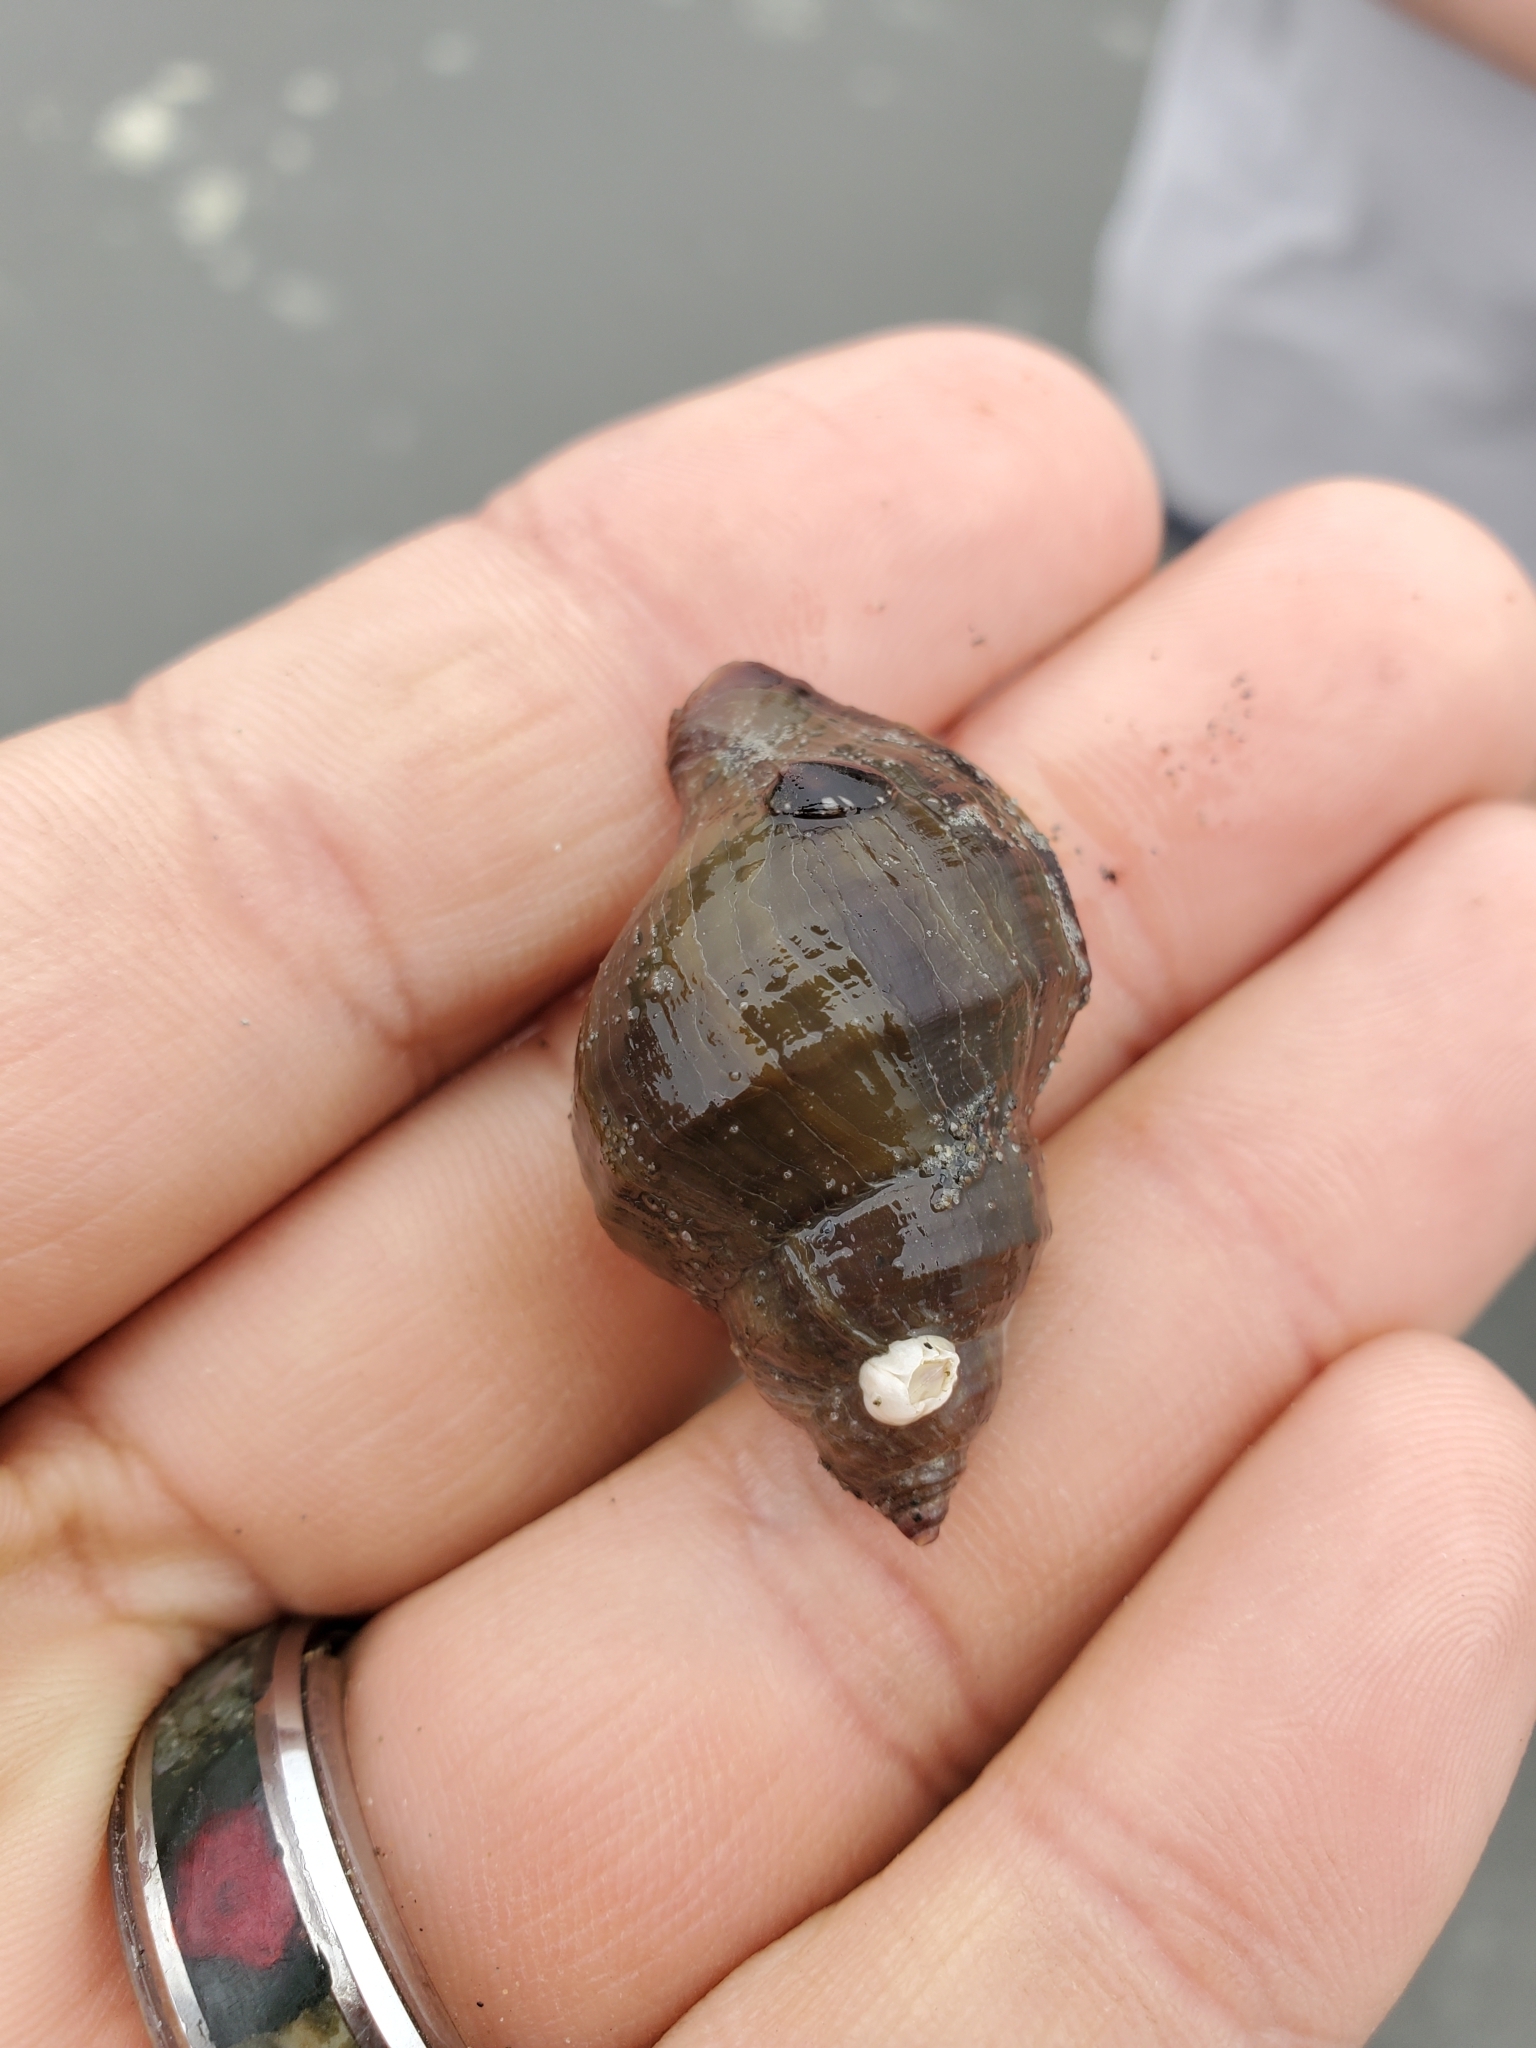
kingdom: Animalia
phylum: Mollusca
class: Gastropoda
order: Neogastropoda
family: Muricidae
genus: Nucella
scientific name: Nucella lamellosa
